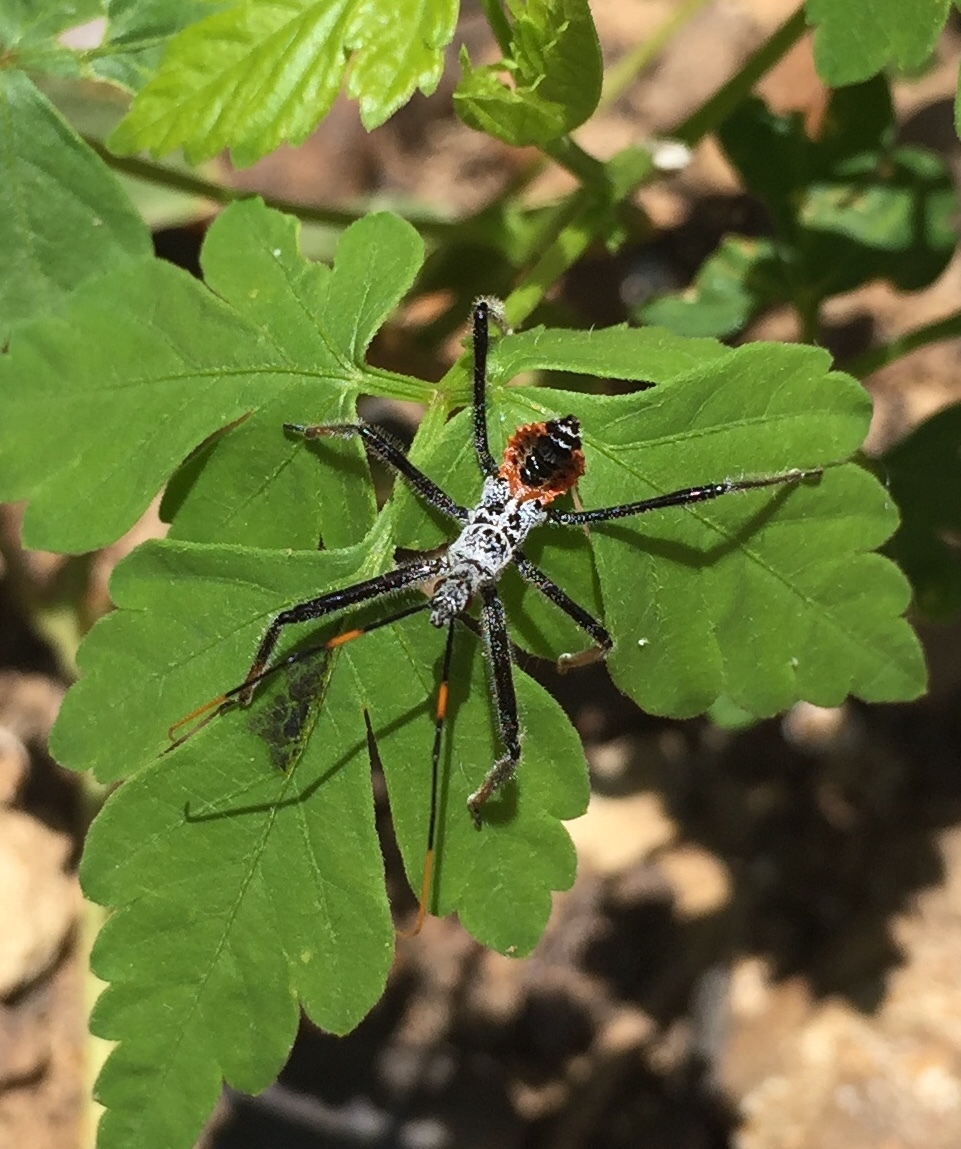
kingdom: Animalia
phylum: Arthropoda
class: Insecta
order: Hemiptera
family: Reduviidae
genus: Arilus
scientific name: Arilus cristatus
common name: North american wheel bug
